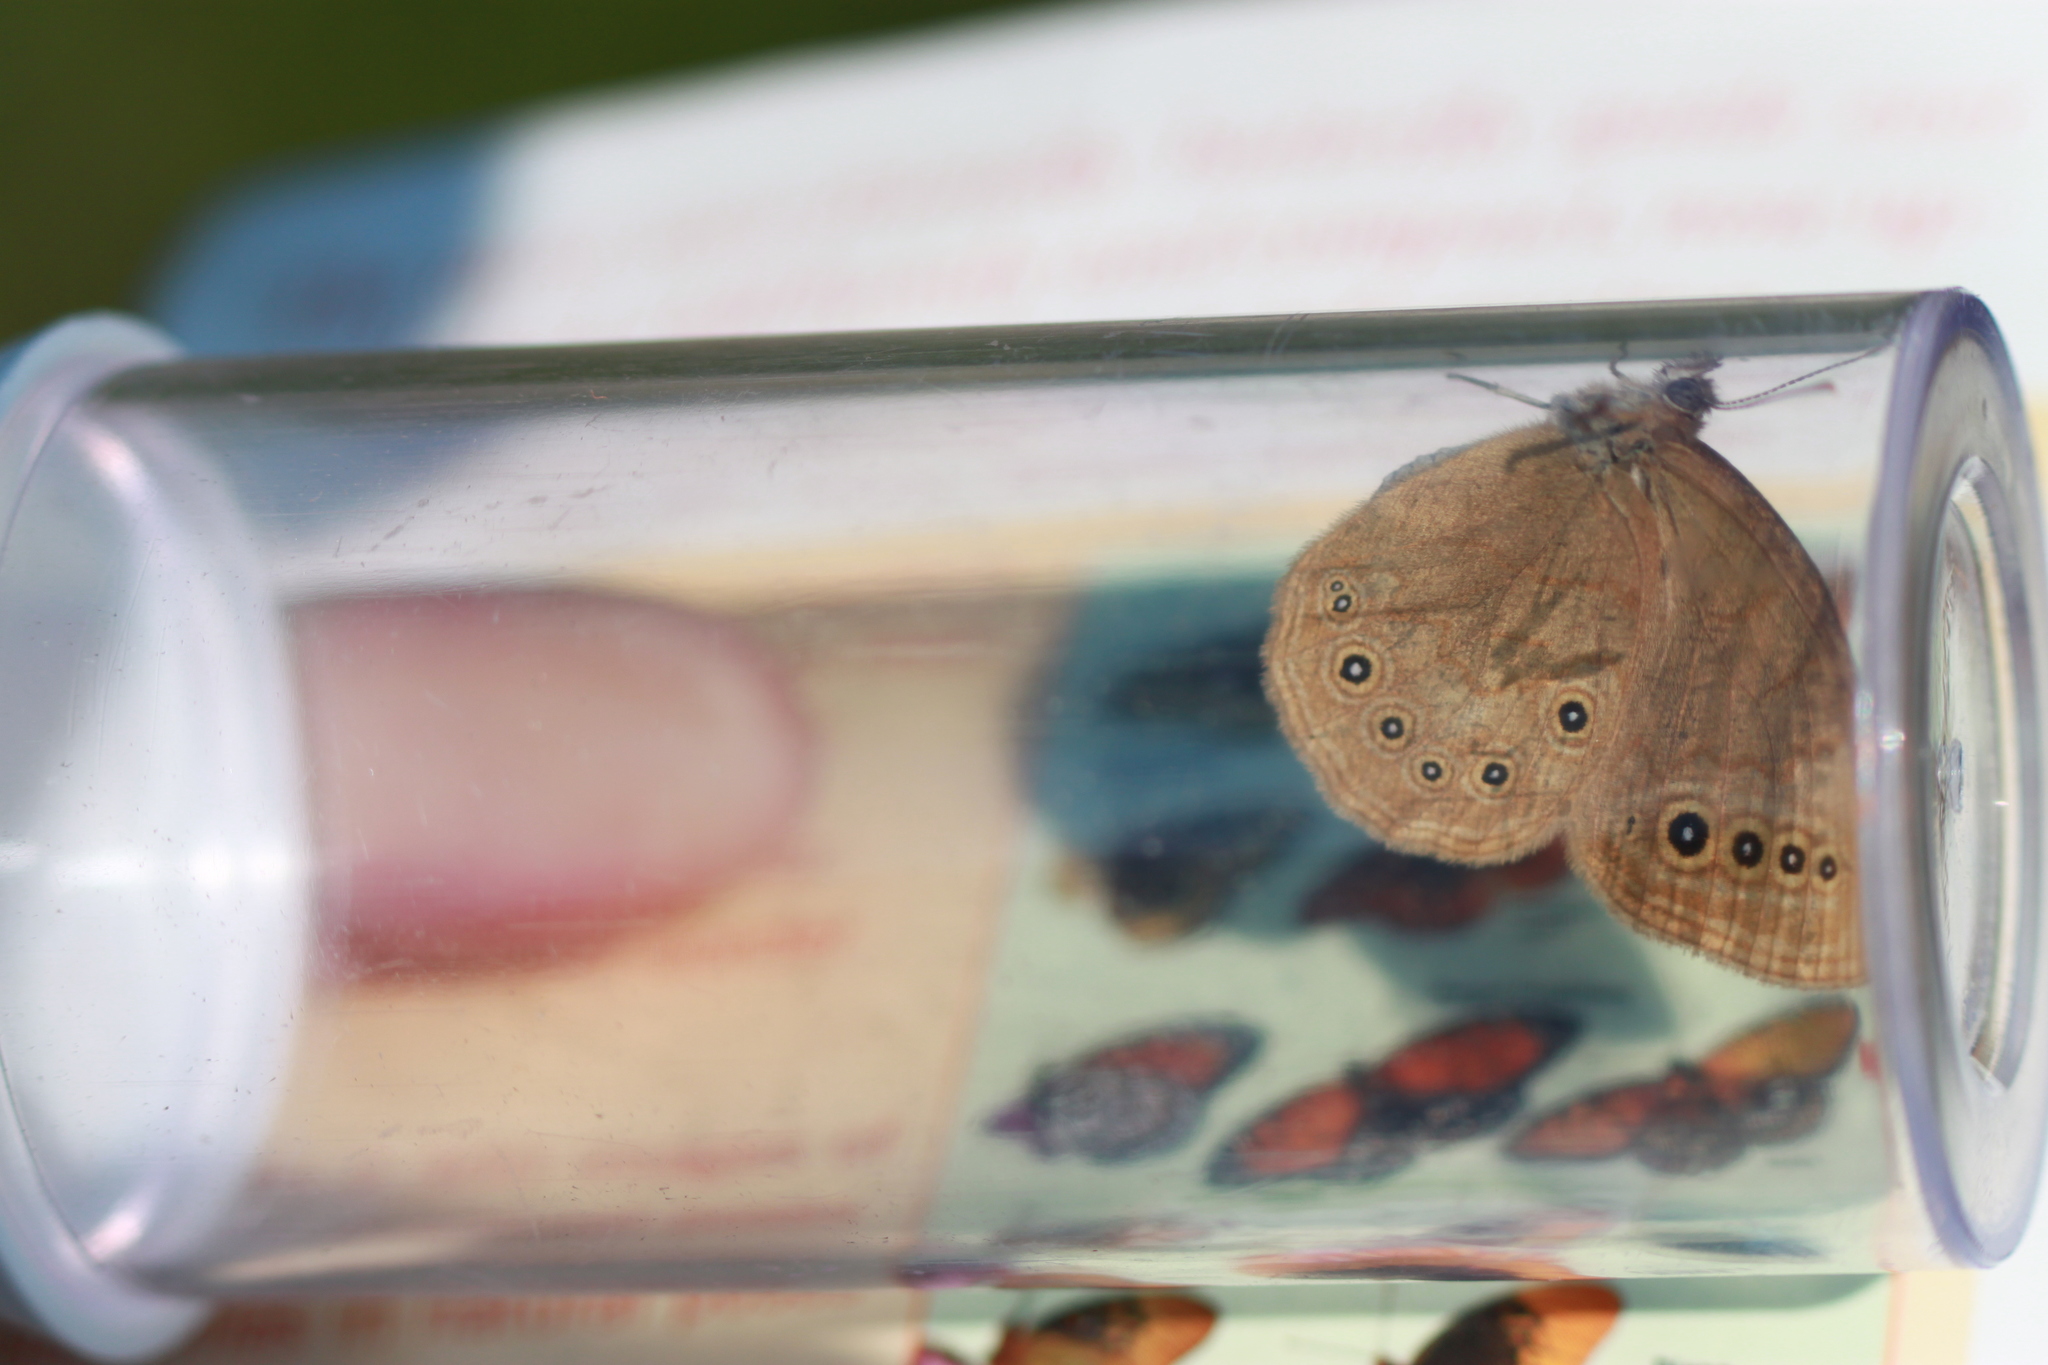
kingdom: Animalia
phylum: Arthropoda
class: Insecta
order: Lepidoptera
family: Nymphalidae
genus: Lethe
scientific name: Lethe eurydice
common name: Eyed brown
